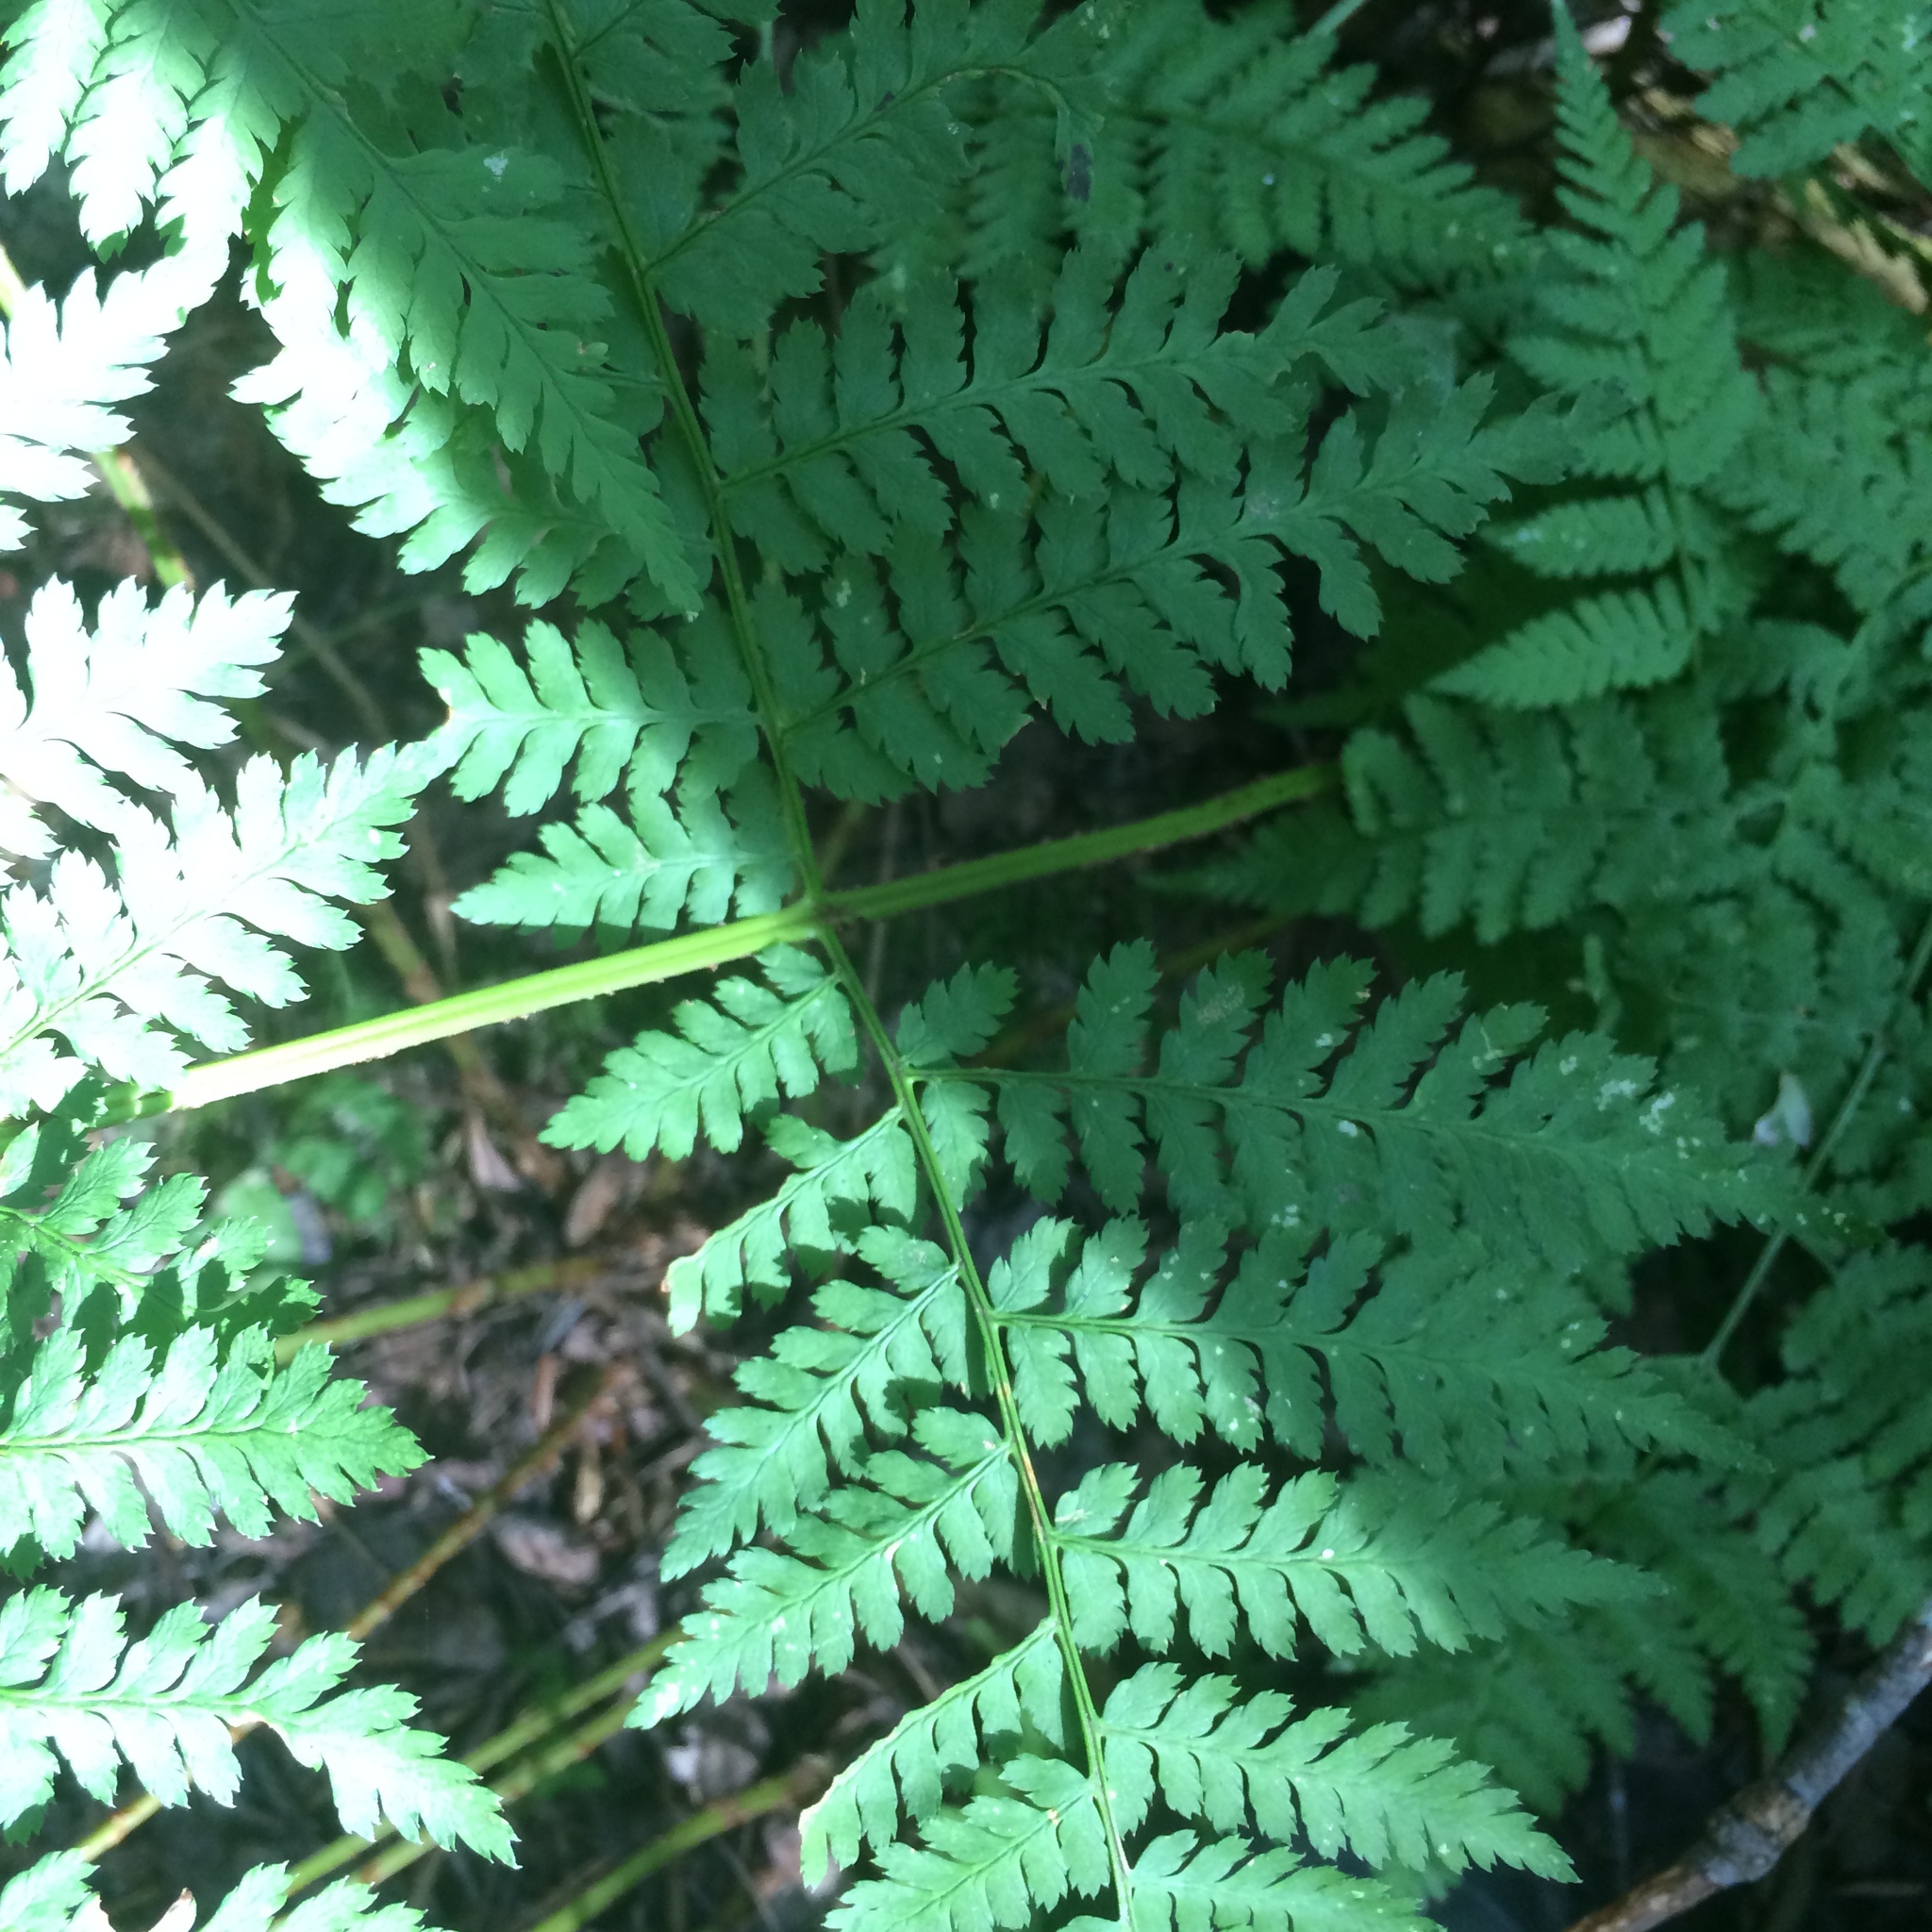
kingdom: Plantae
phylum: Tracheophyta
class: Polypodiopsida
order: Polypodiales
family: Dryopteridaceae
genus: Dryopteris
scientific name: Dryopteris campyloptera
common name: Mountain wood fern
